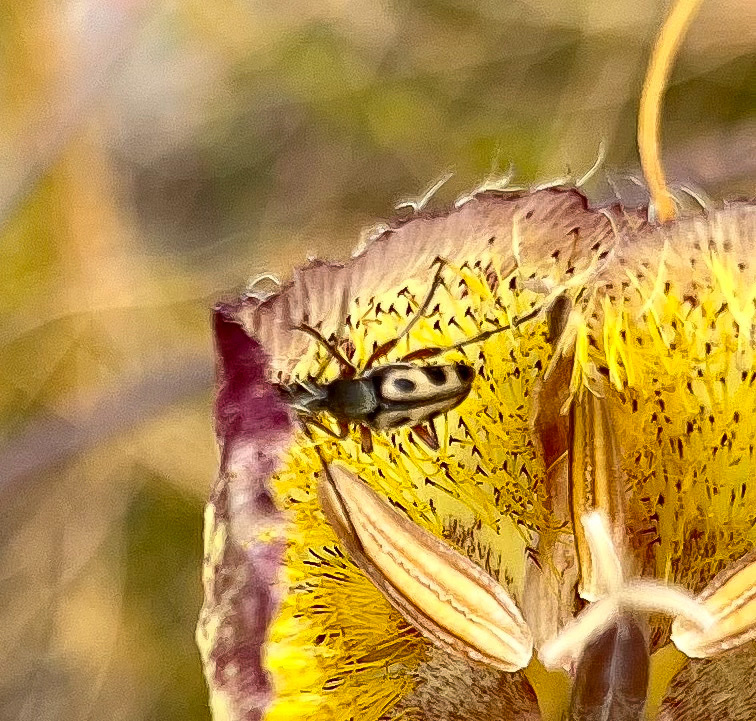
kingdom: Animalia
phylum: Arthropoda
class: Insecta
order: Coleoptera
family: Cerambycidae
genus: Judolia
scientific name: Judolia sexspilota
